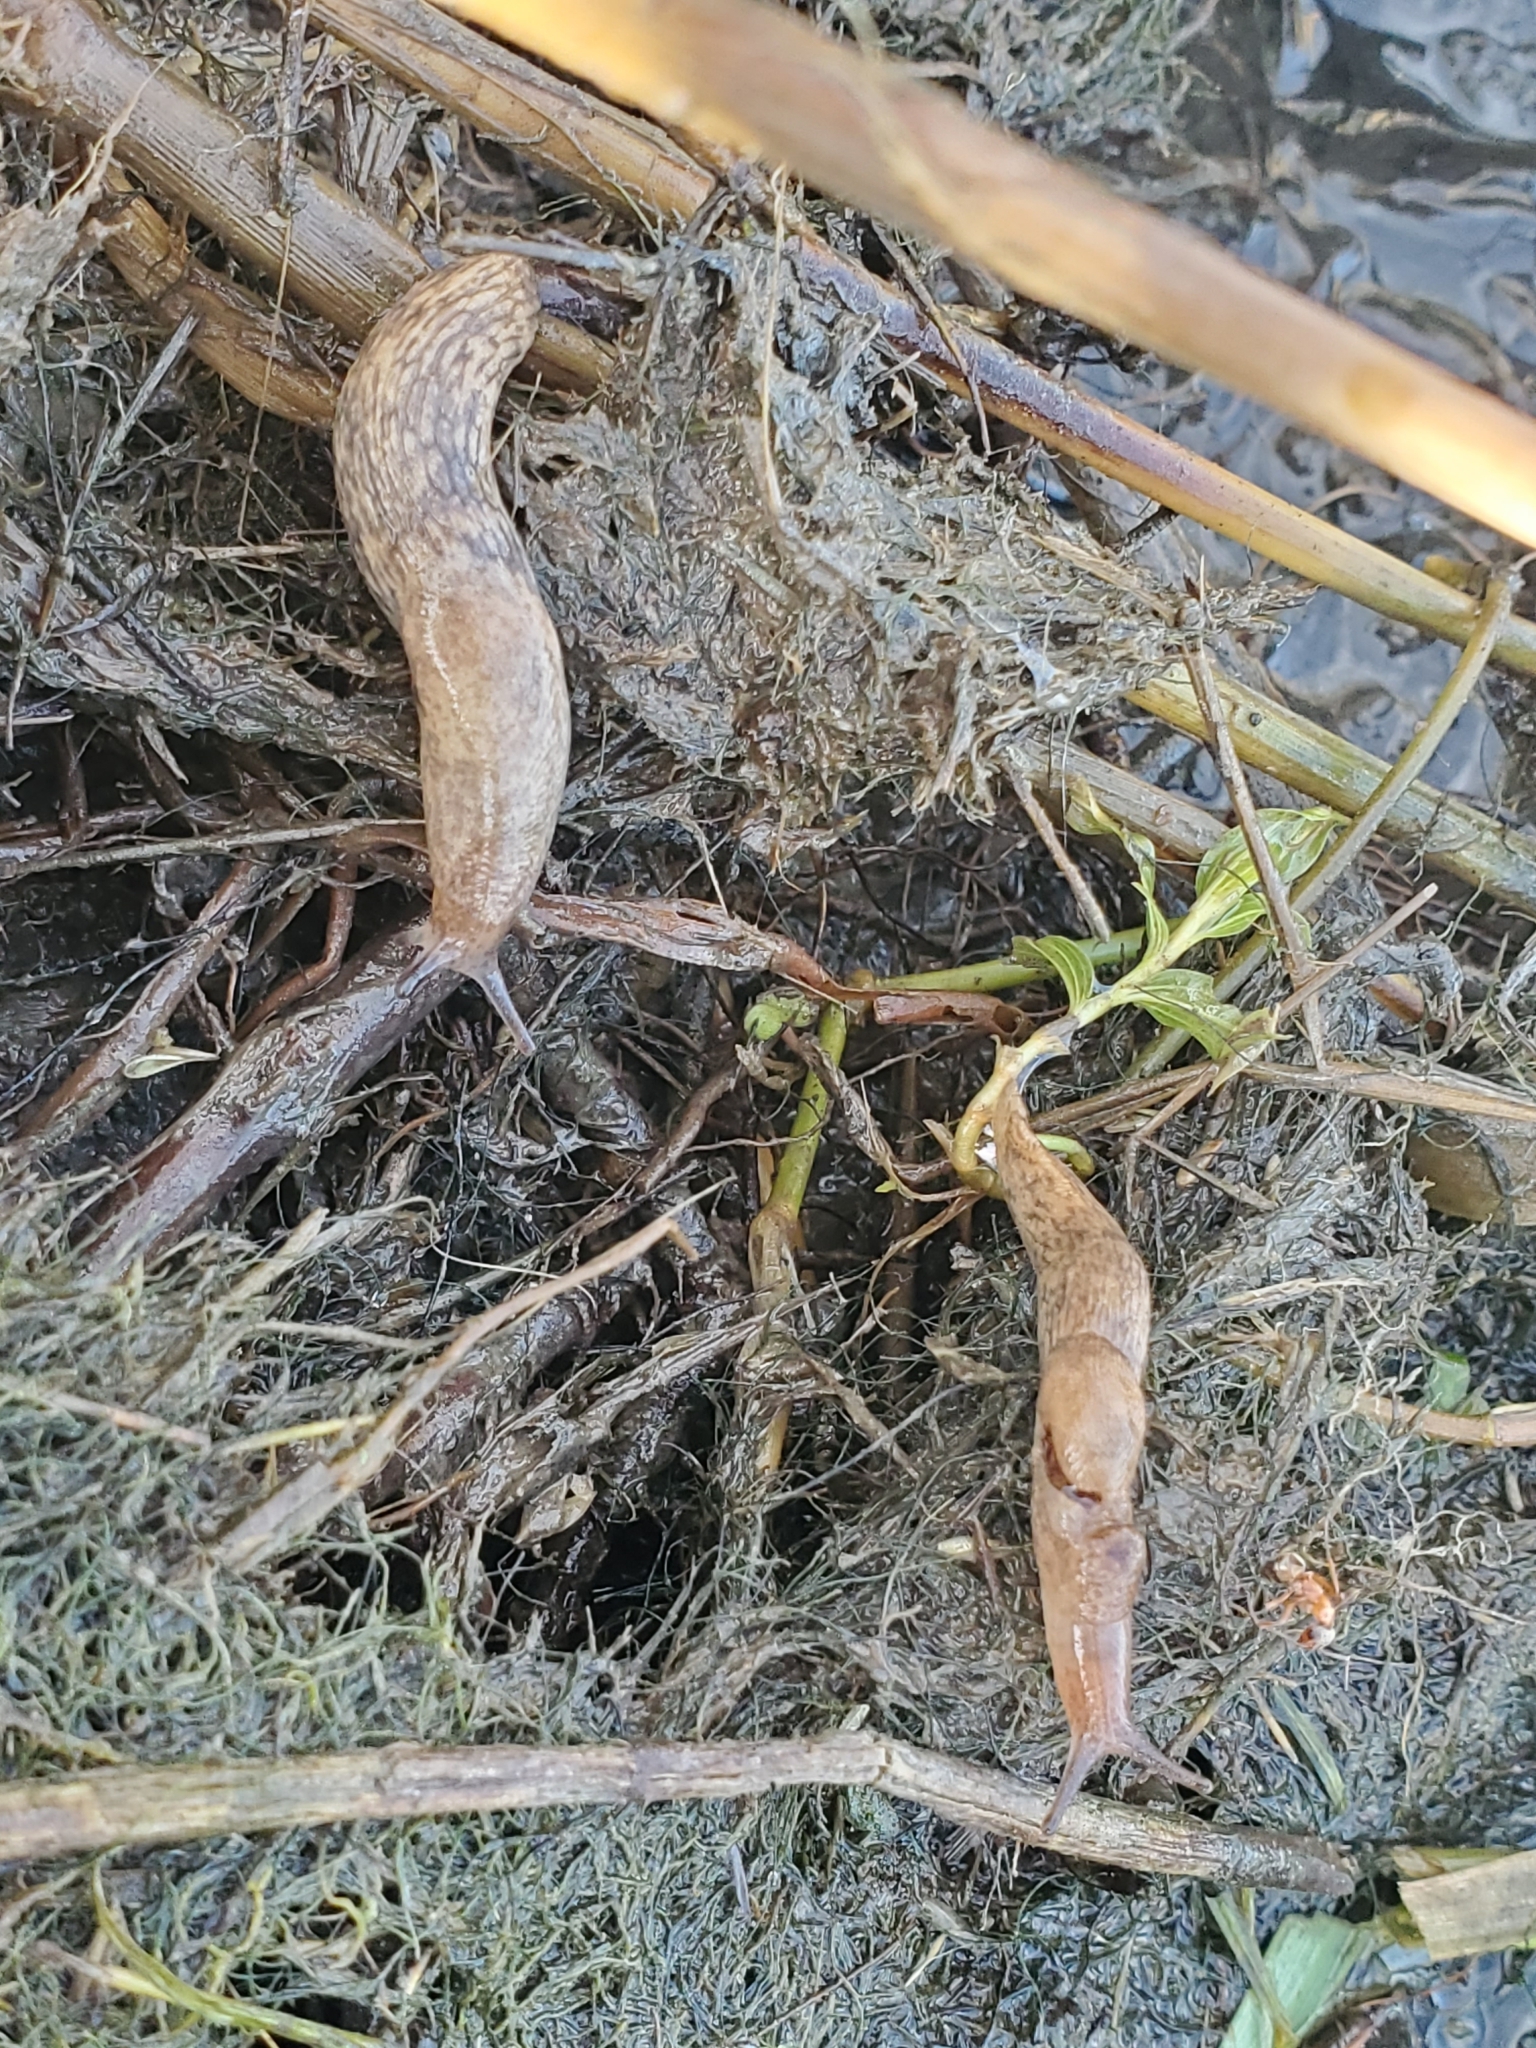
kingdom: Animalia
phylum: Mollusca
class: Gastropoda
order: Stylommatophora
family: Agriolimacidae
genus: Deroceras
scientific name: Deroceras reticulatum
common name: Gray field slug
